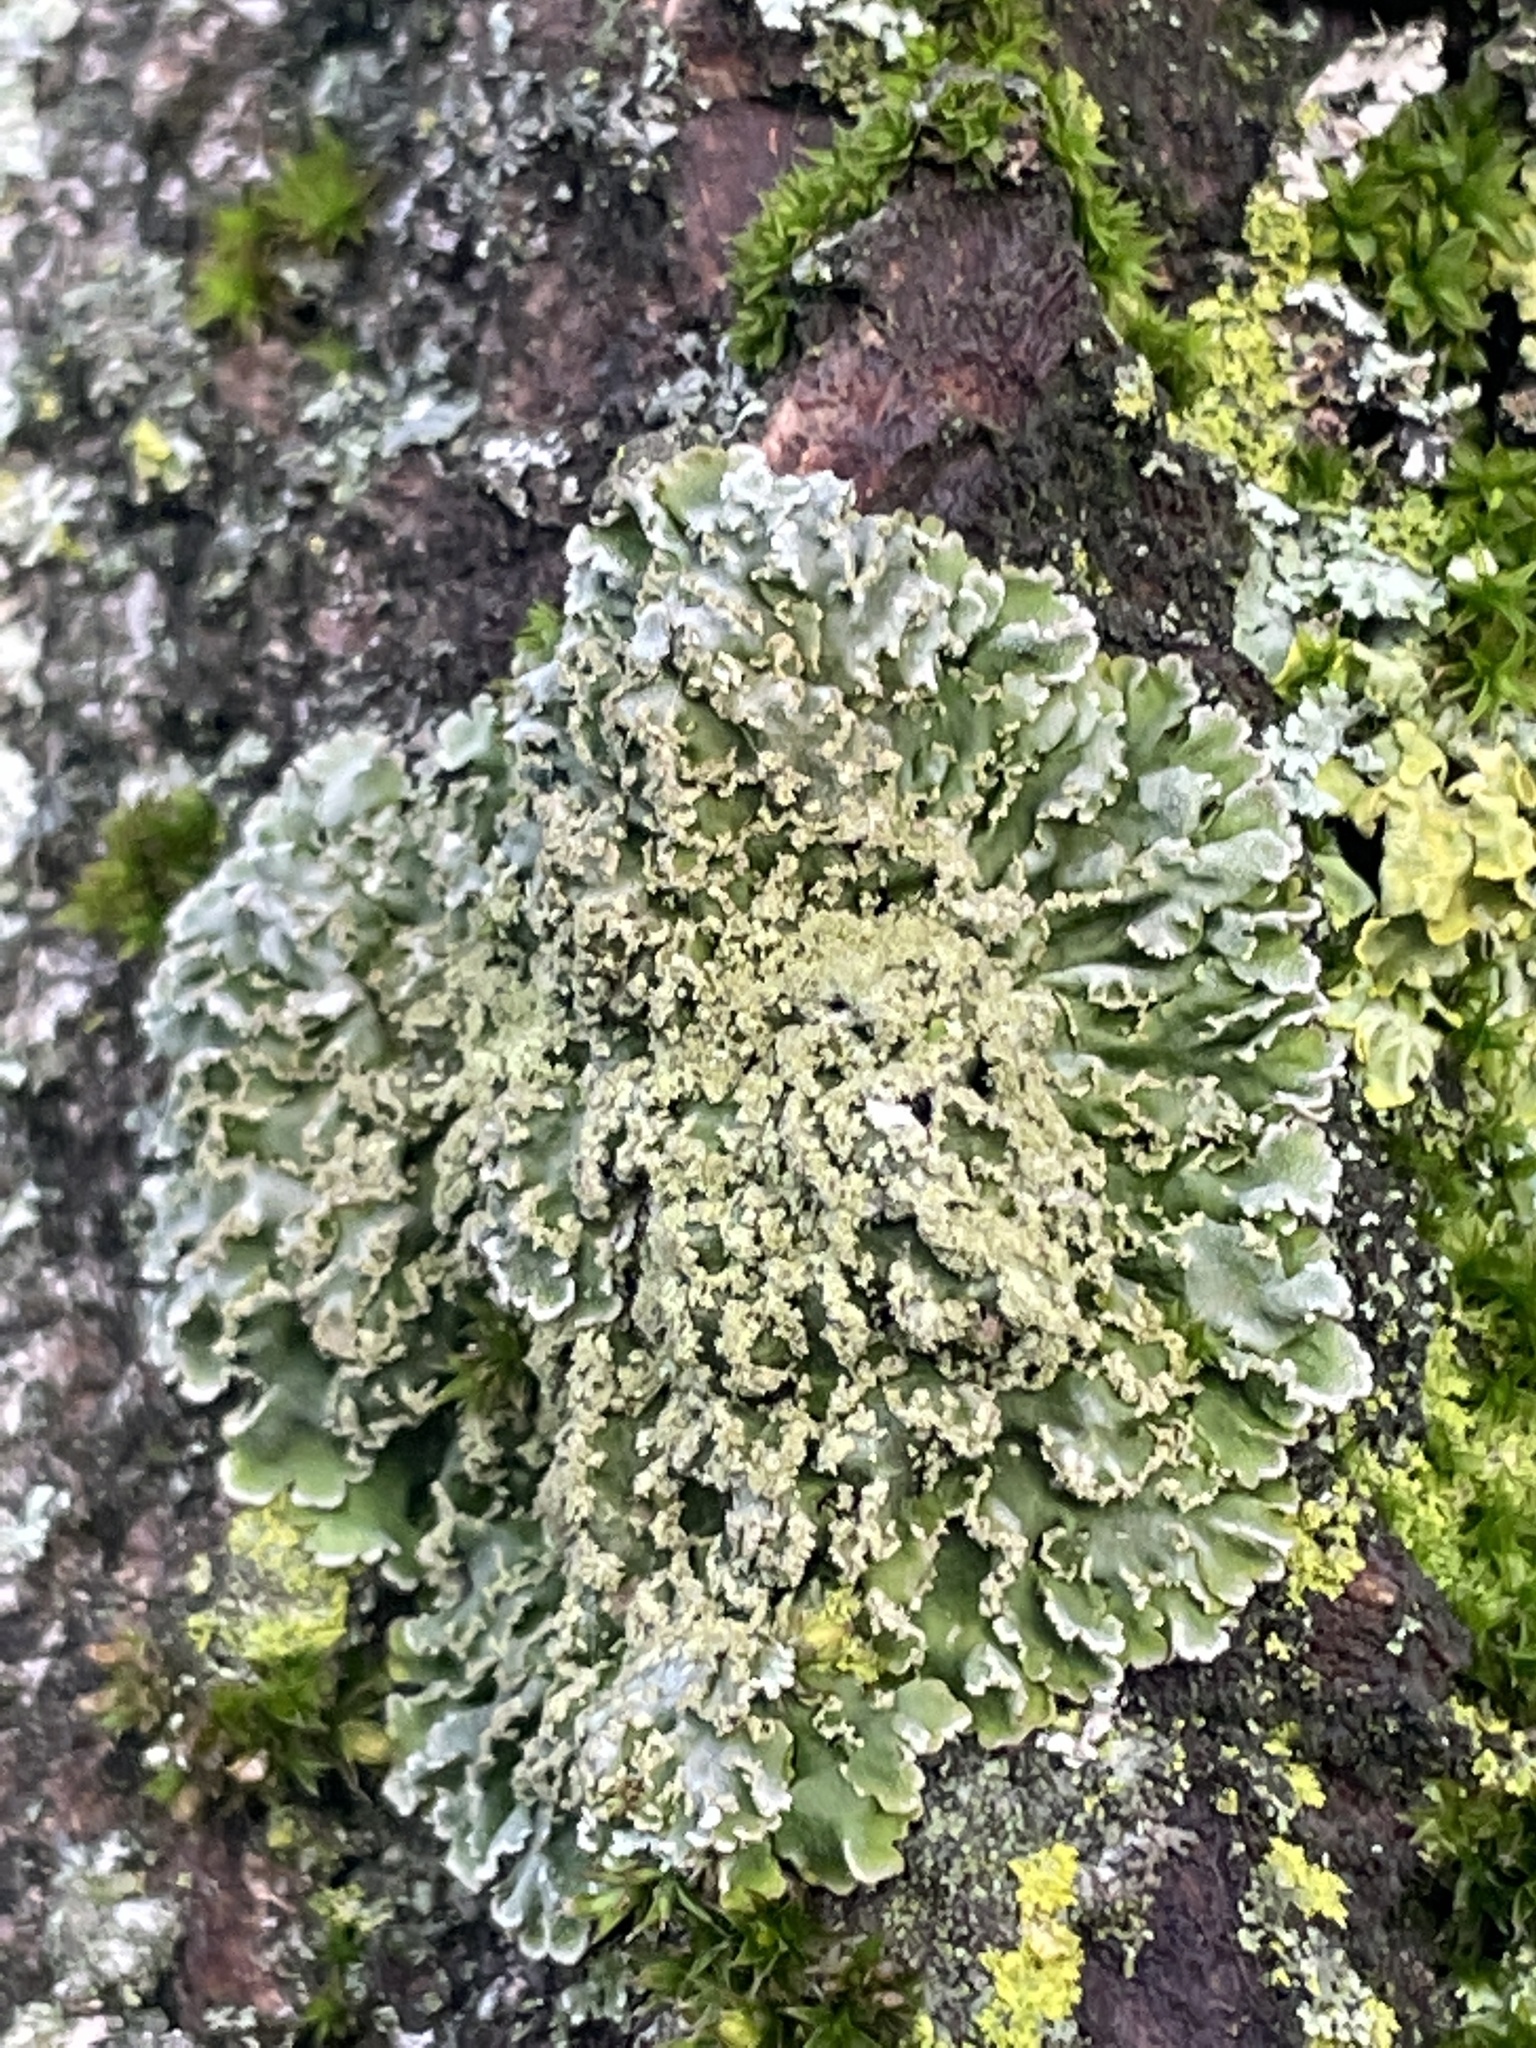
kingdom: Fungi
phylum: Ascomycota
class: Lecanoromycetes
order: Caliciales
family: Physciaceae
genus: Poeltonia
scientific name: Poeltonia grisea
